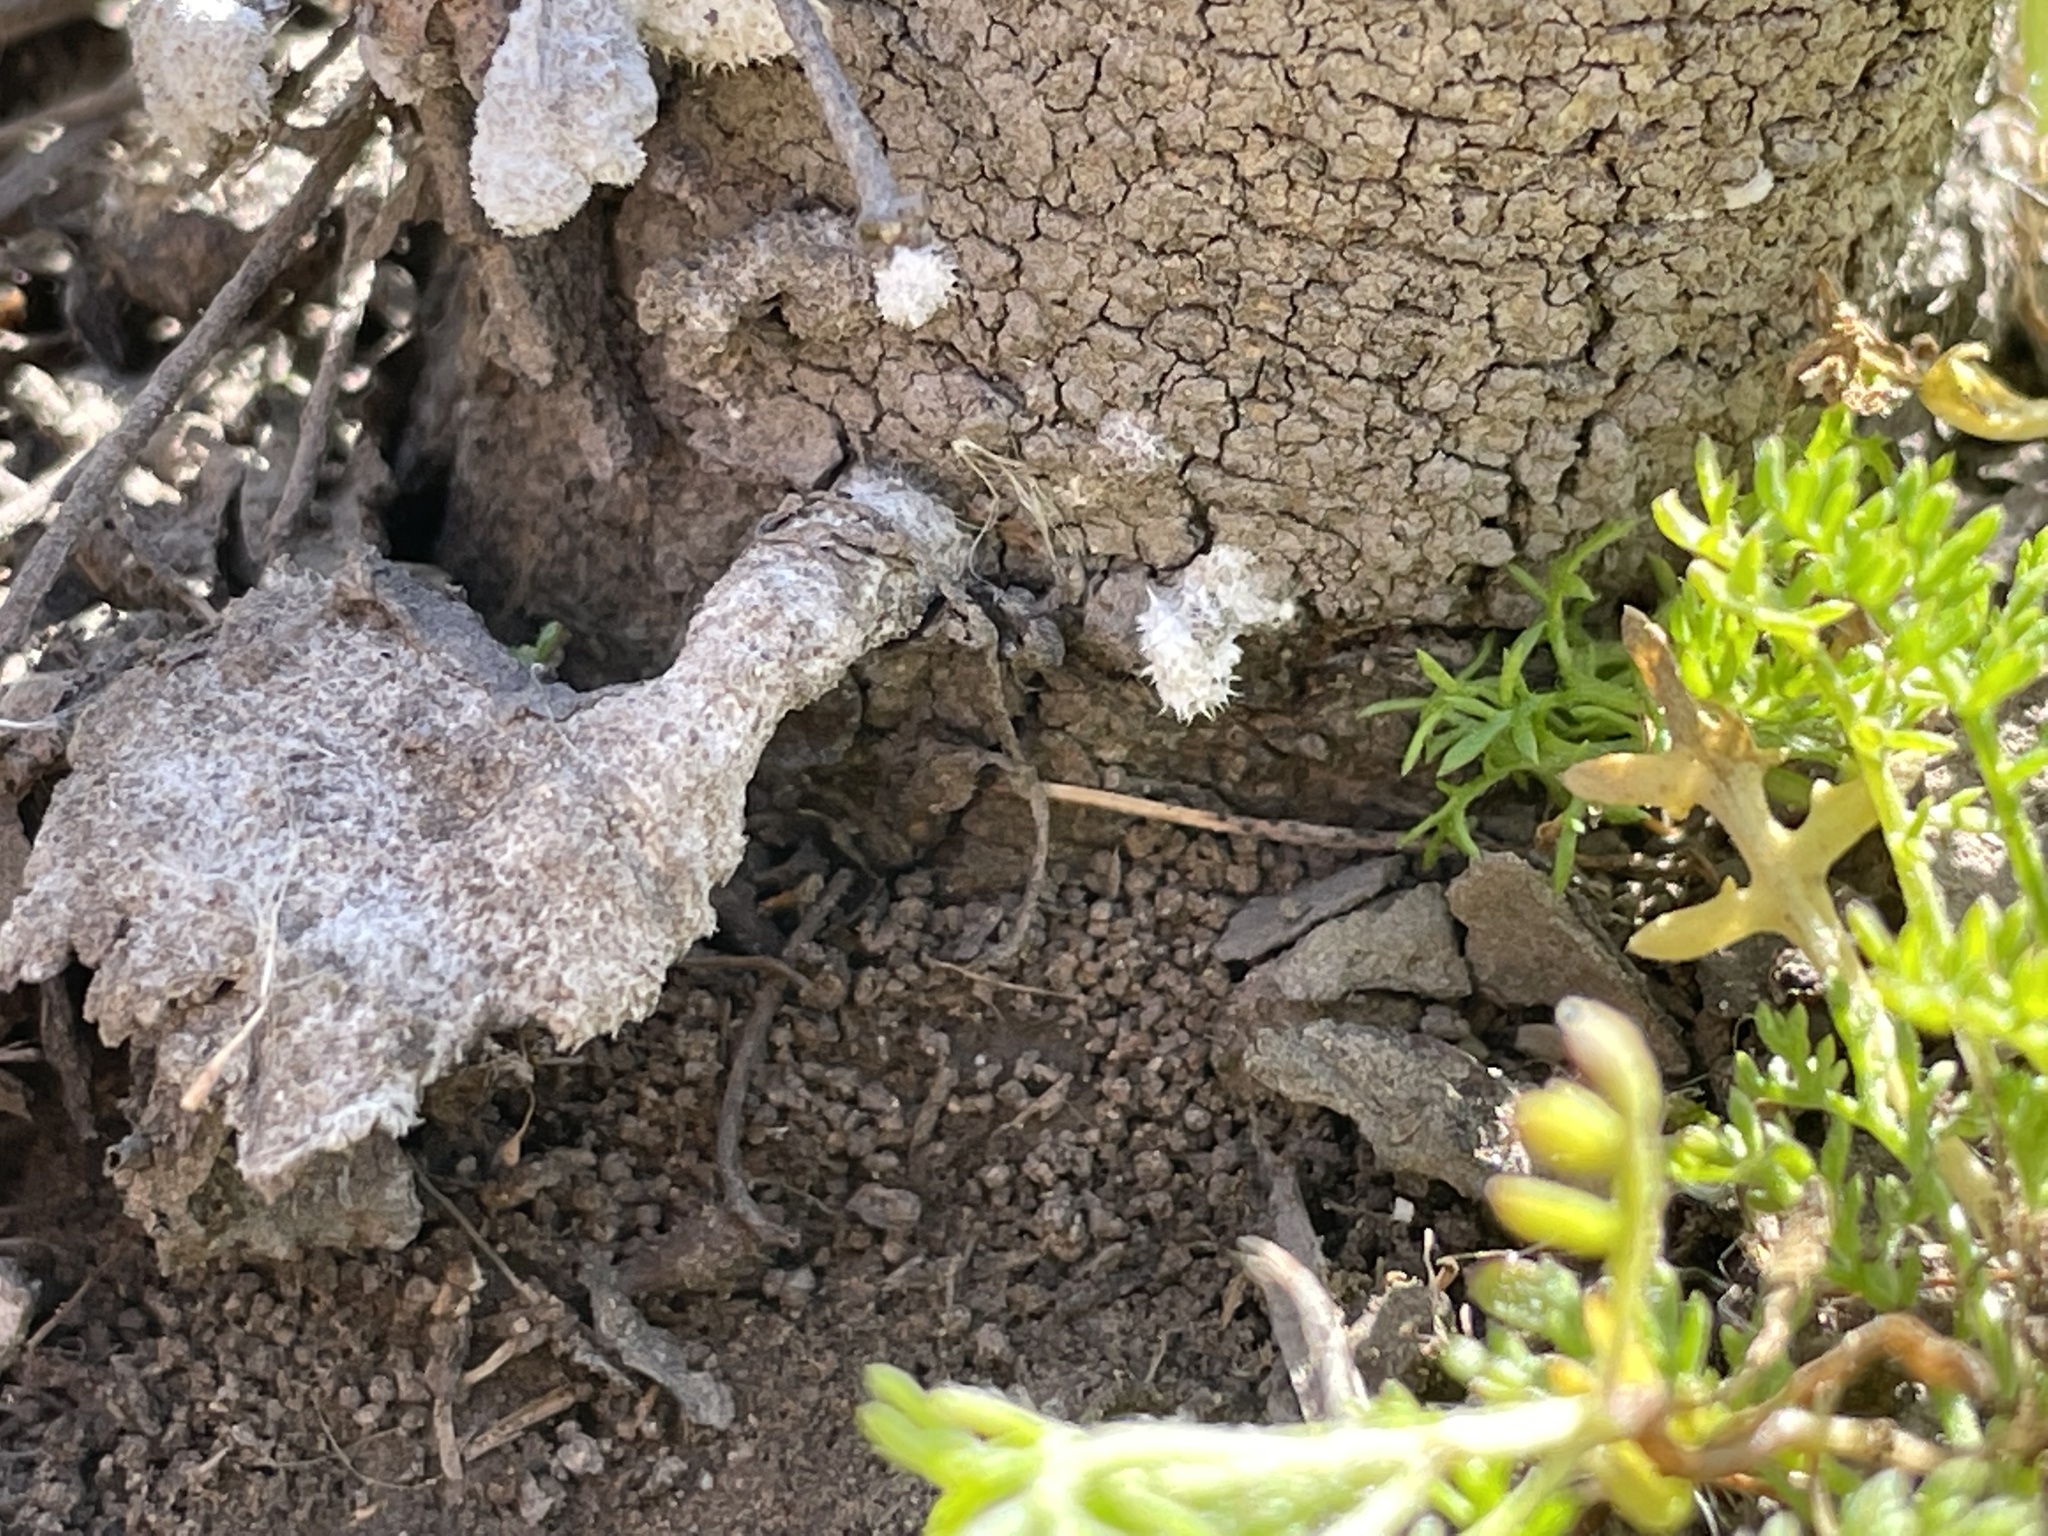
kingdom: Fungi
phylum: Basidiomycota
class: Agaricomycetes
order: Agaricales
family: Schizophyllaceae
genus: Schizophyllum
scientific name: Schizophyllum commune
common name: Common porecrust
